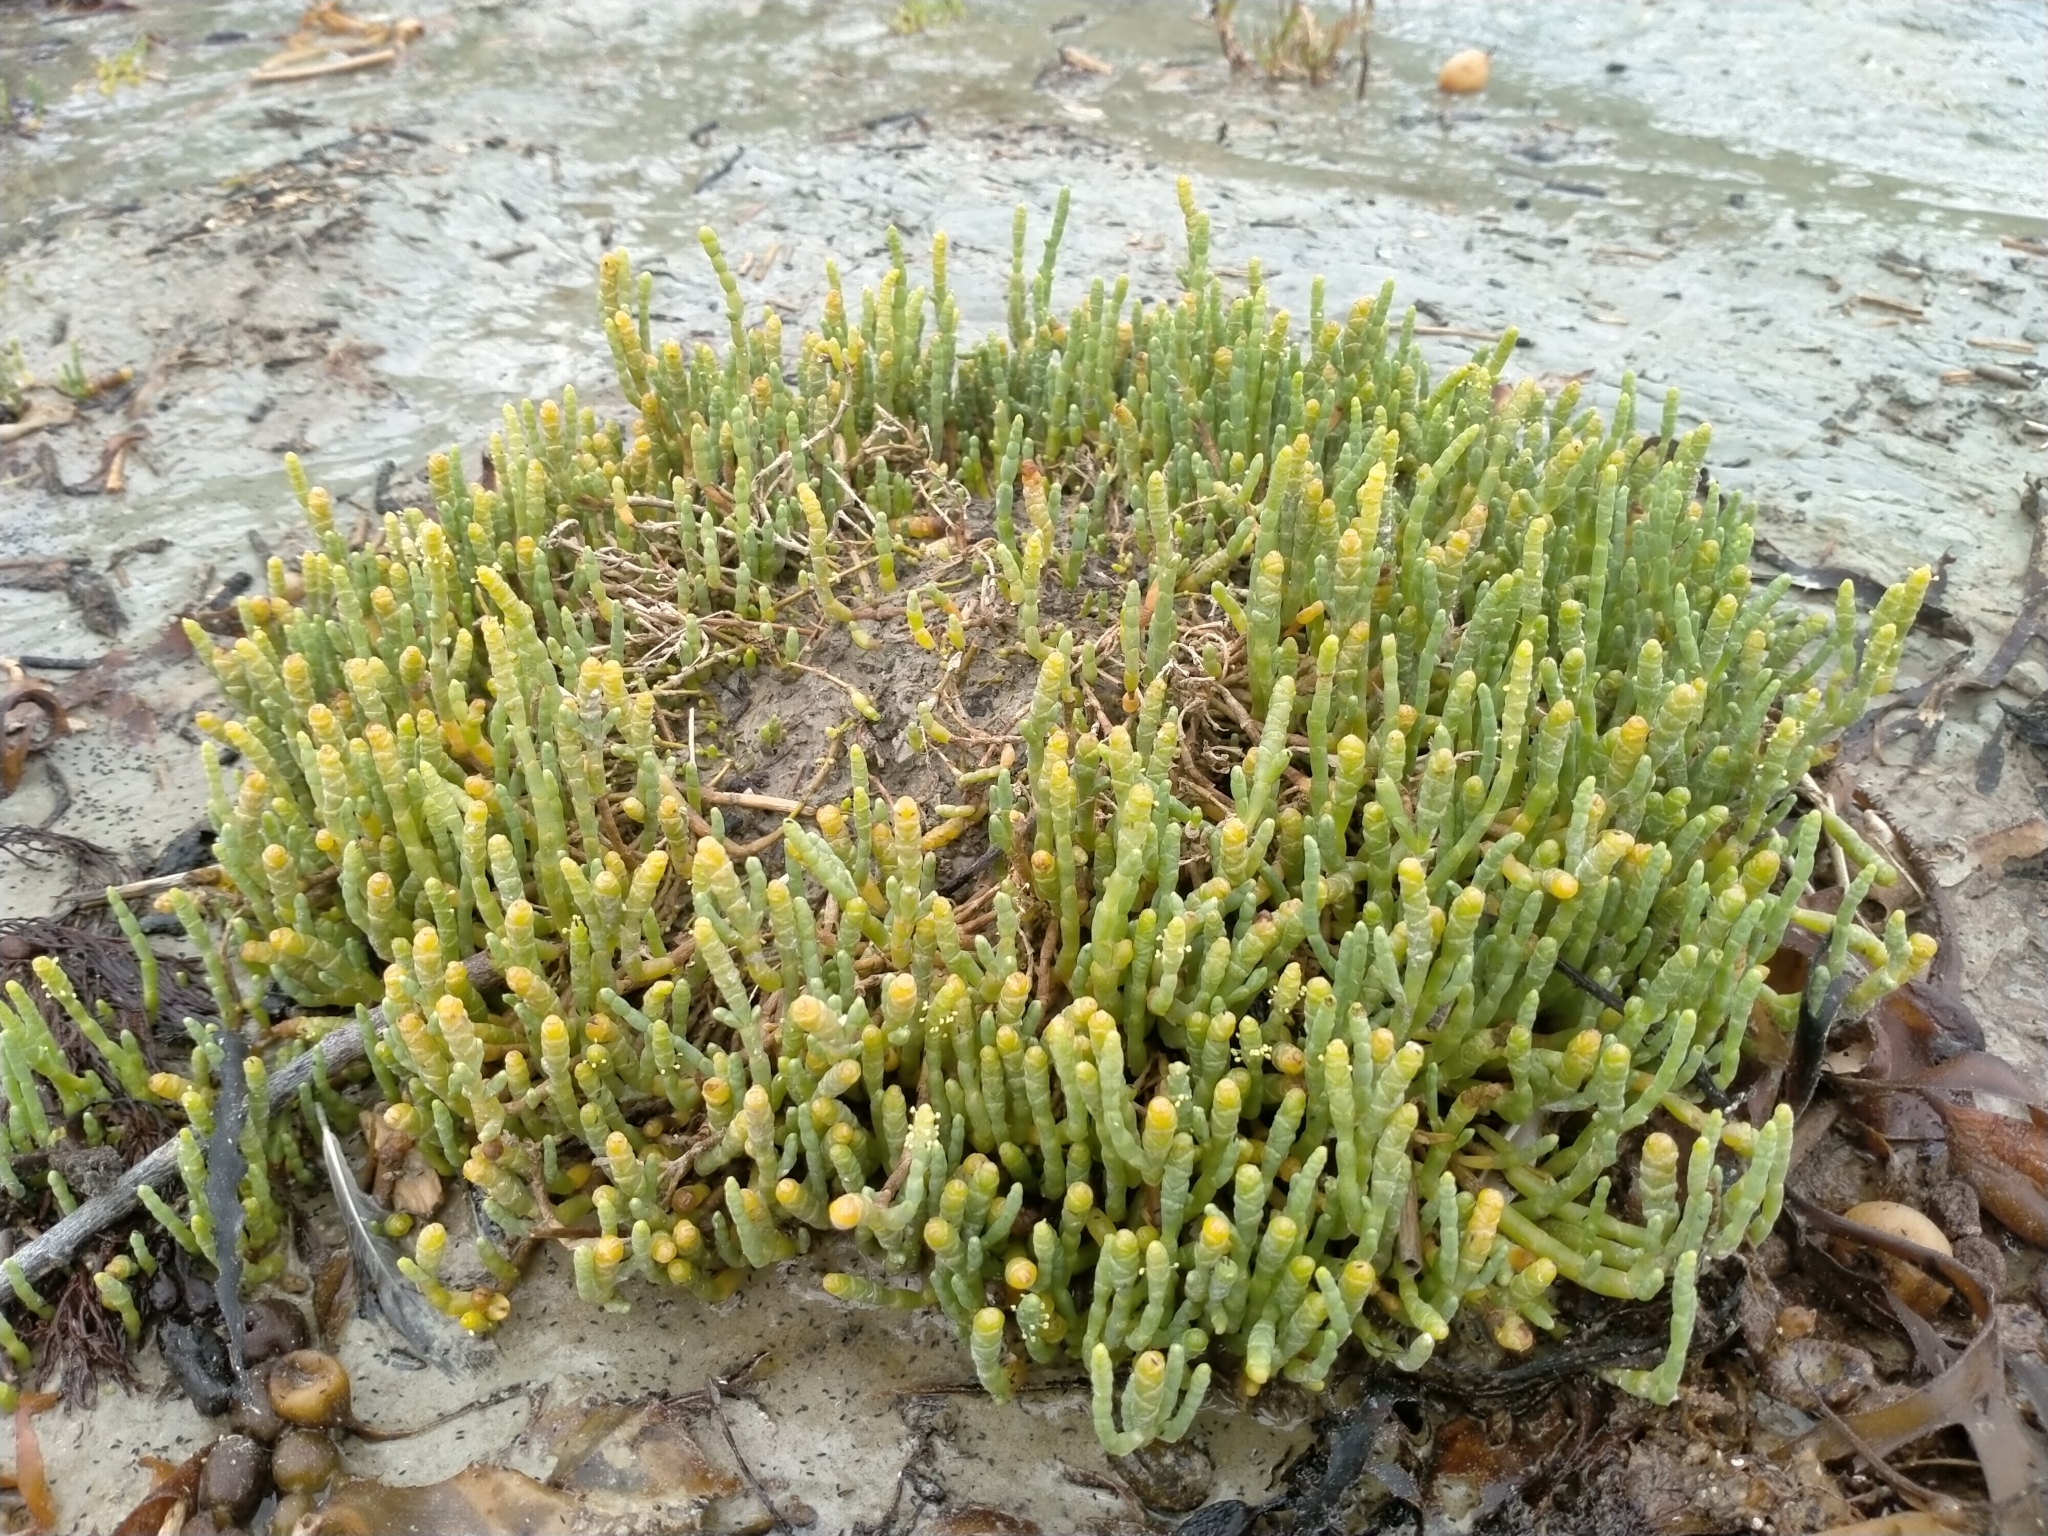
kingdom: Plantae
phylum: Tracheophyta
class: Magnoliopsida
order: Caryophyllales
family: Amaranthaceae
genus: Salicornia
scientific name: Salicornia quinqueflora
